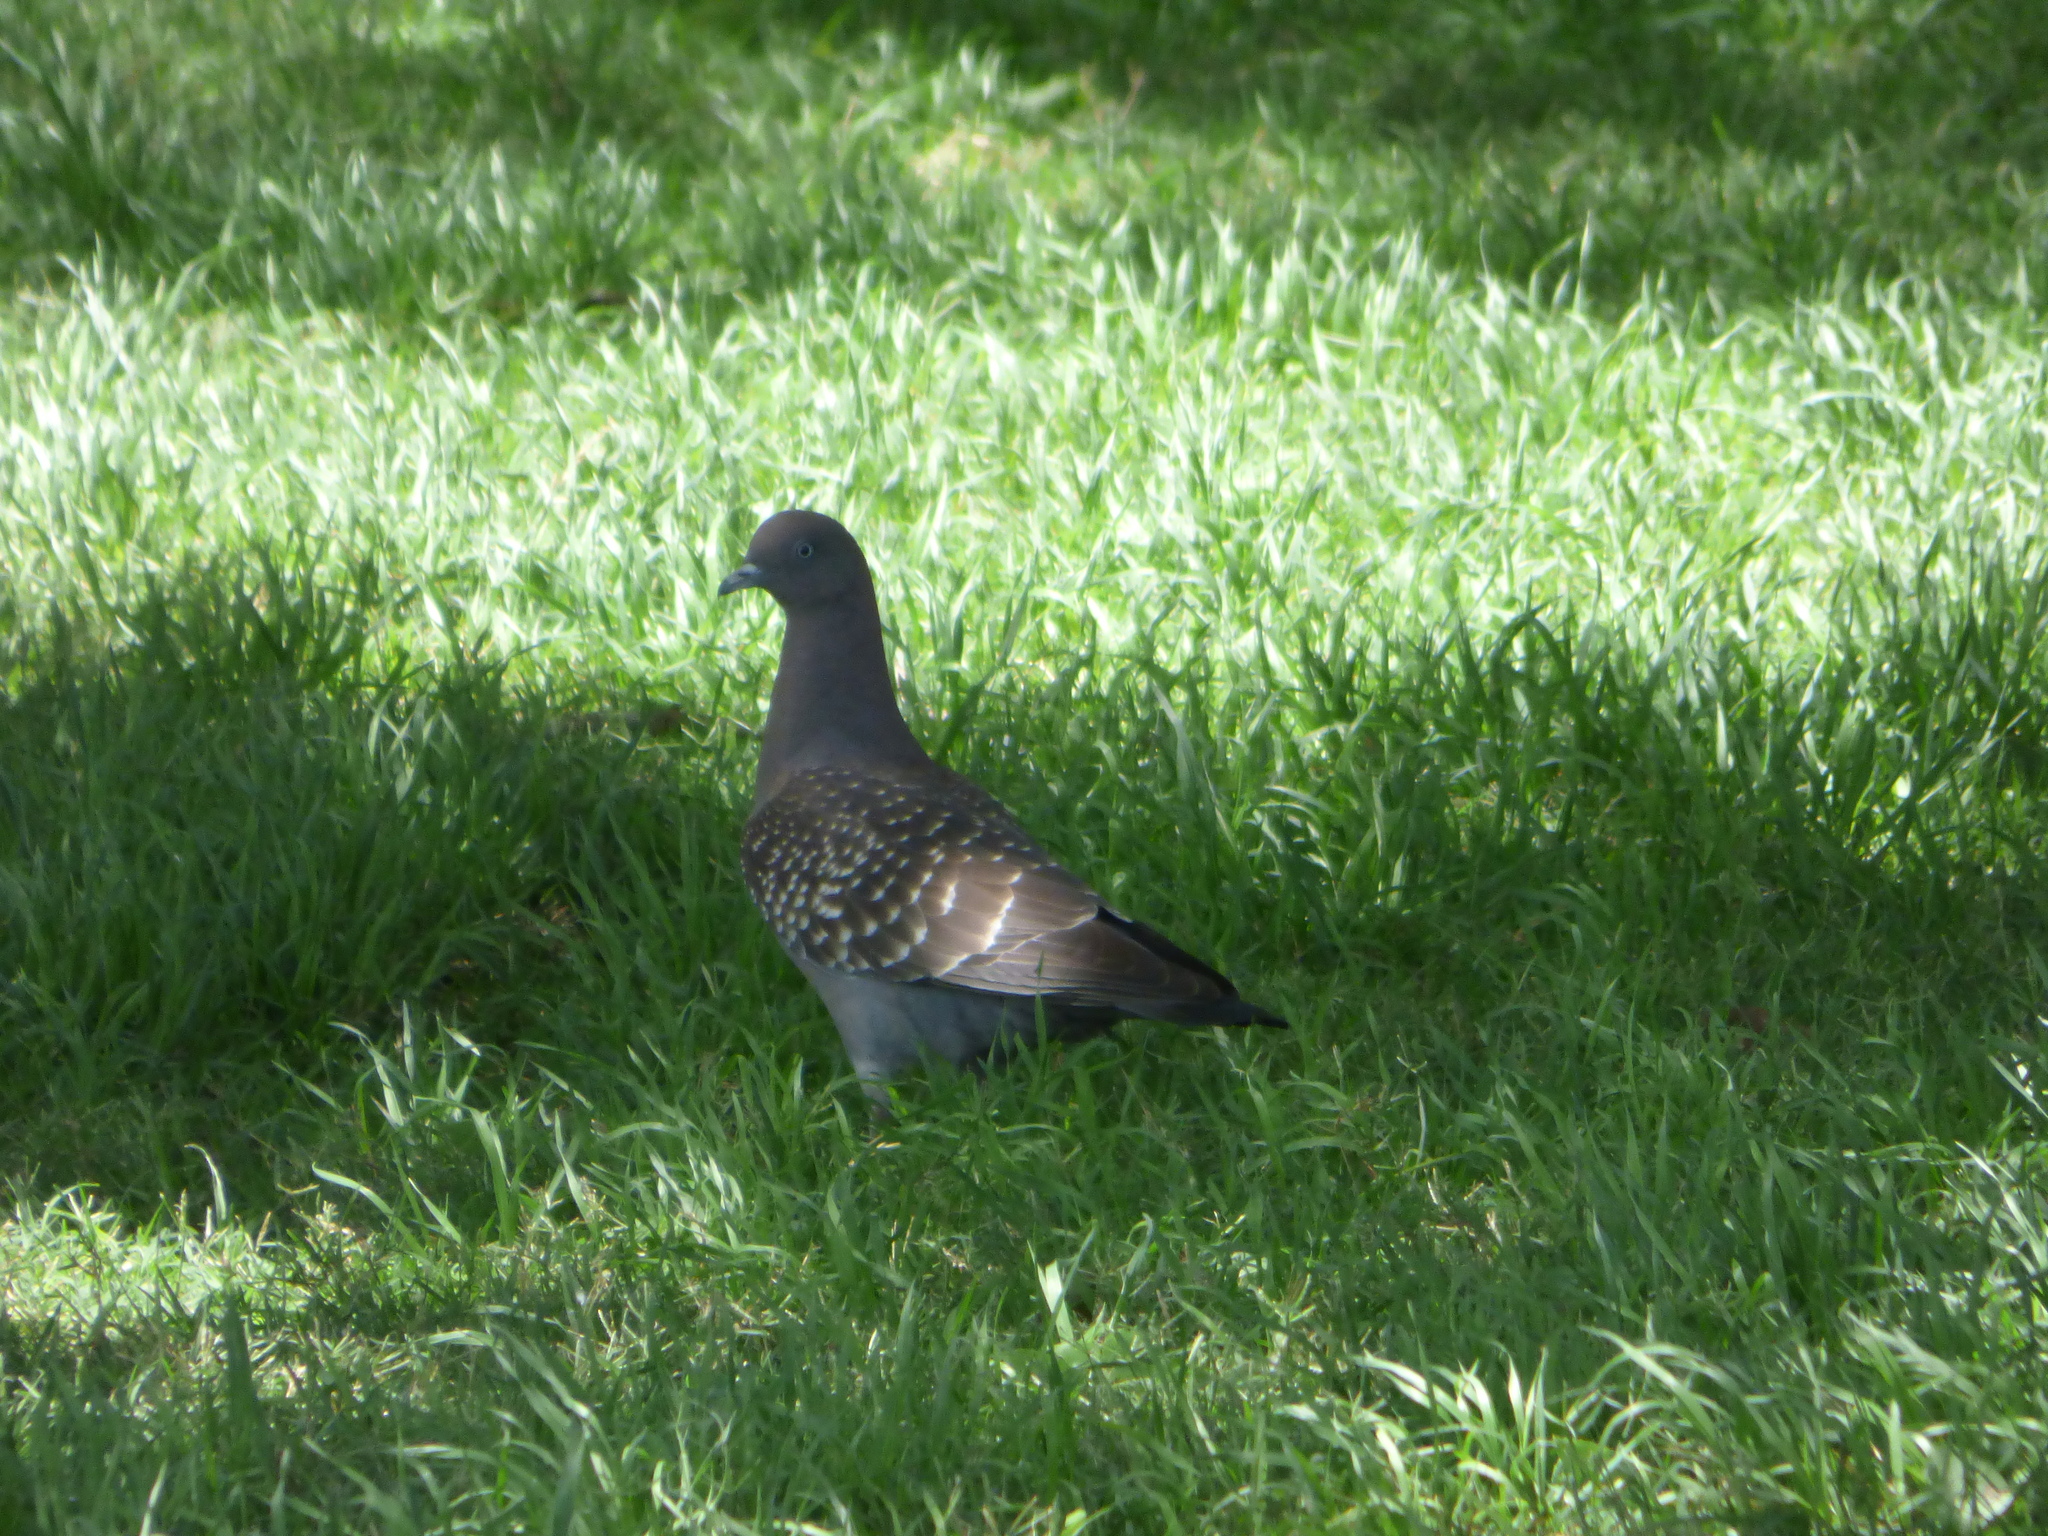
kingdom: Animalia
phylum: Chordata
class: Aves
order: Columbiformes
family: Columbidae
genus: Patagioenas
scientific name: Patagioenas maculosa
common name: Spot-winged pigeon
